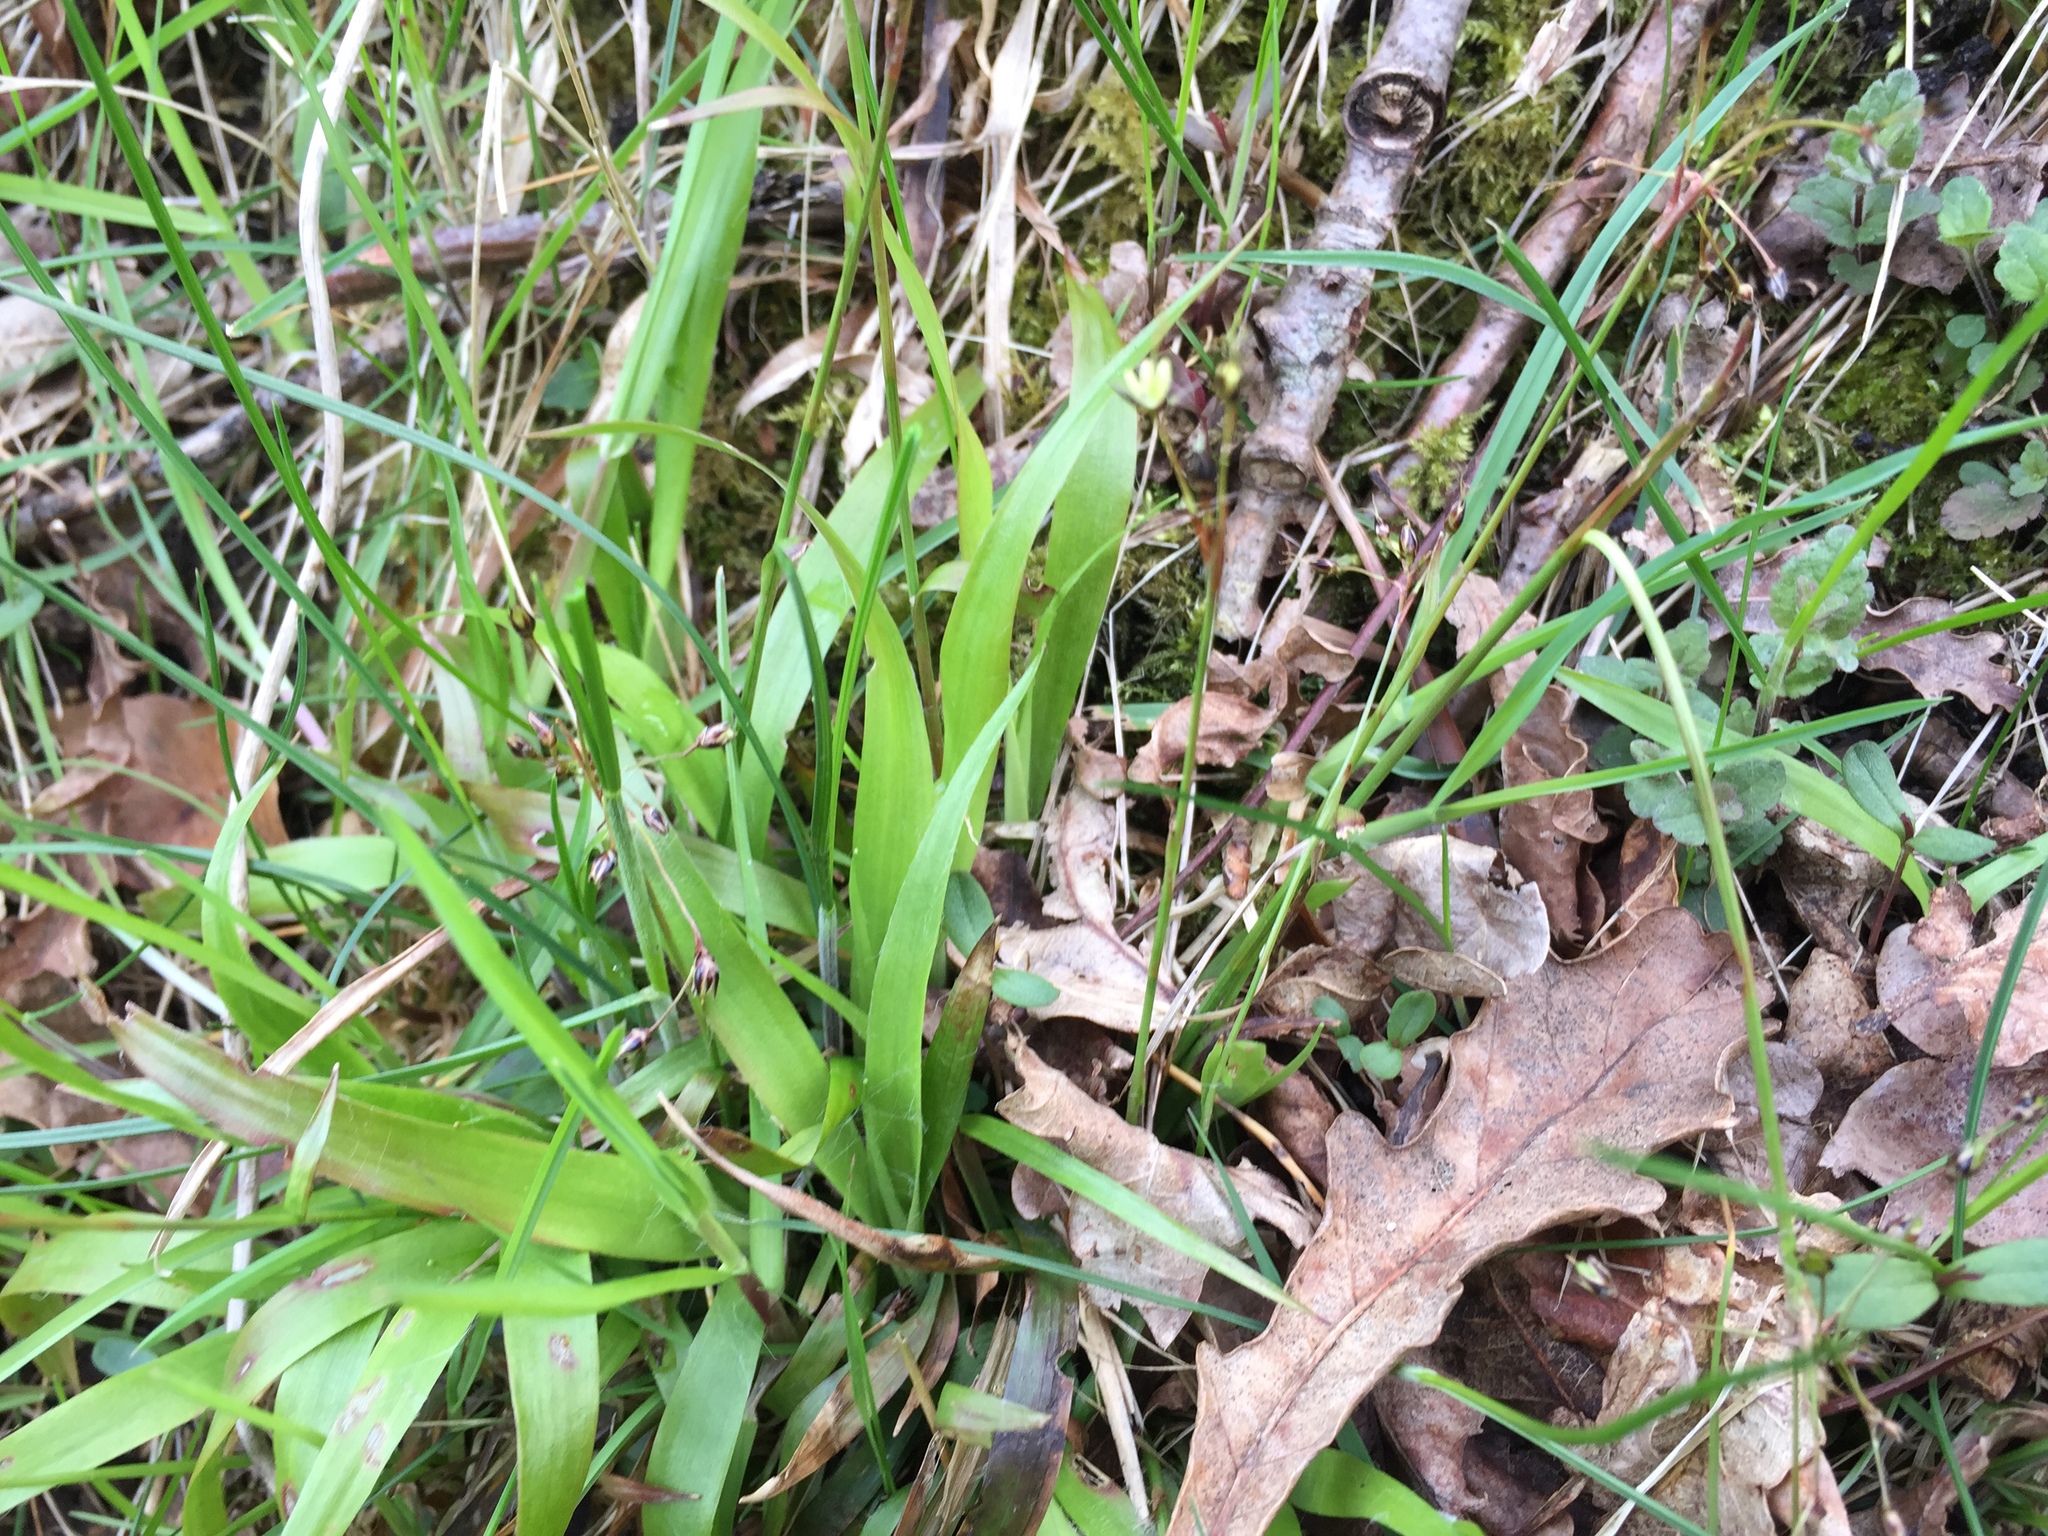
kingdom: Plantae
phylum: Tracheophyta
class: Liliopsida
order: Poales
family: Juncaceae
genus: Luzula
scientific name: Luzula pilosa
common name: Hairy wood-rush
